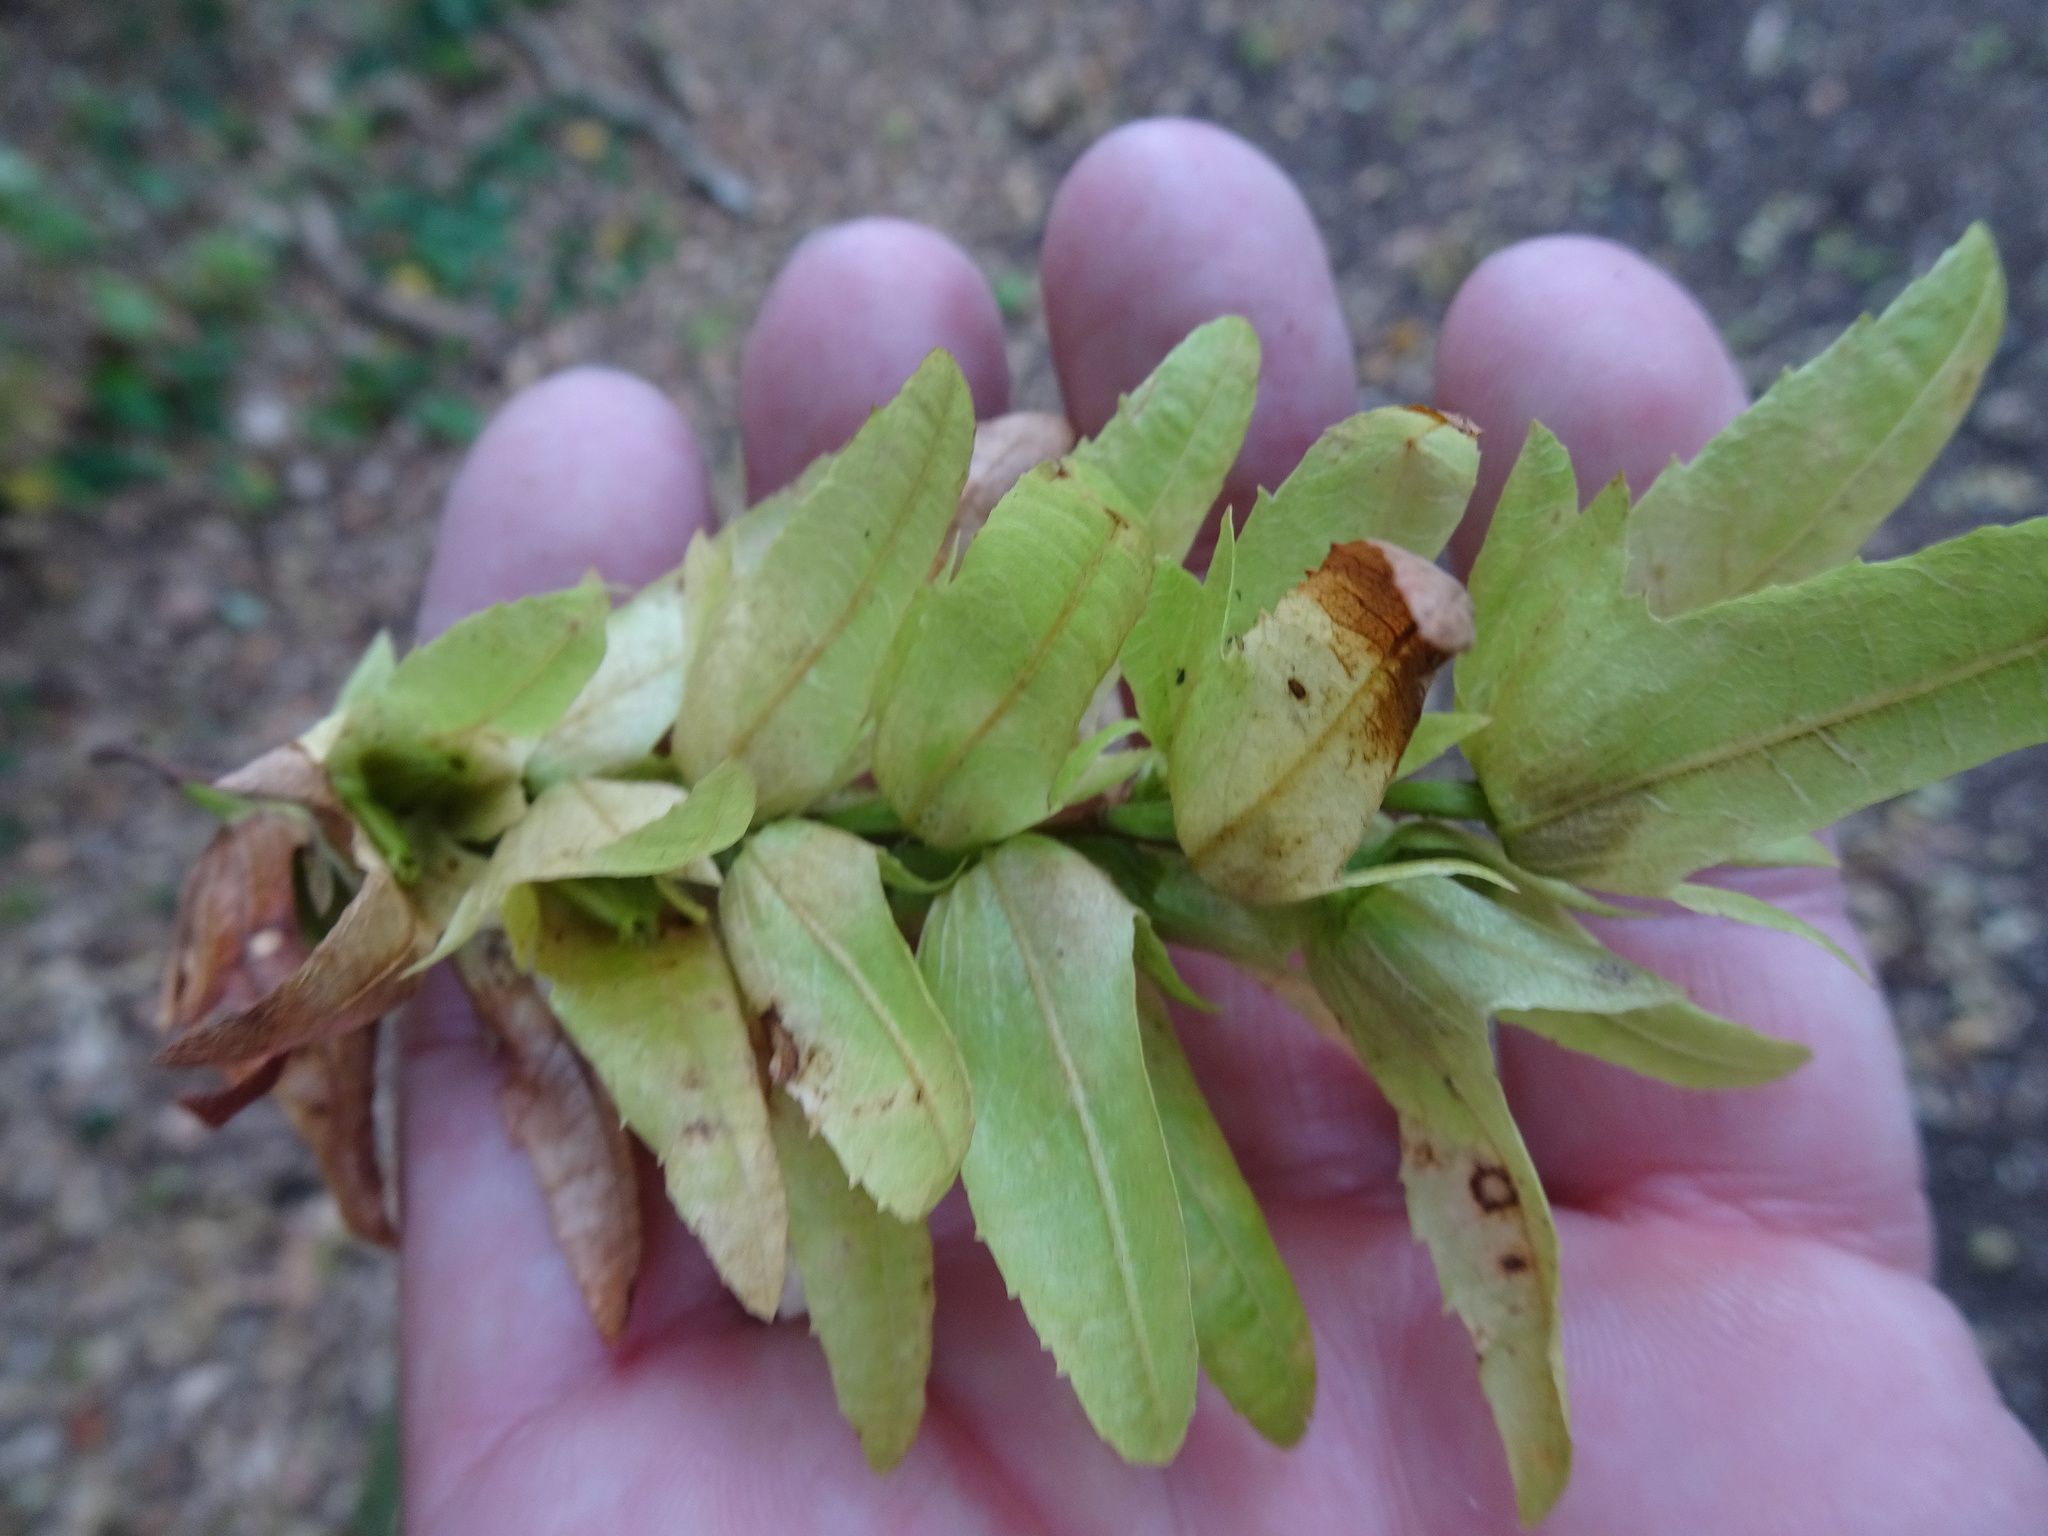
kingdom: Plantae
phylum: Tracheophyta
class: Magnoliopsida
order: Fagales
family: Betulaceae
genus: Carpinus
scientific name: Carpinus betulus
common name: Hornbeam
